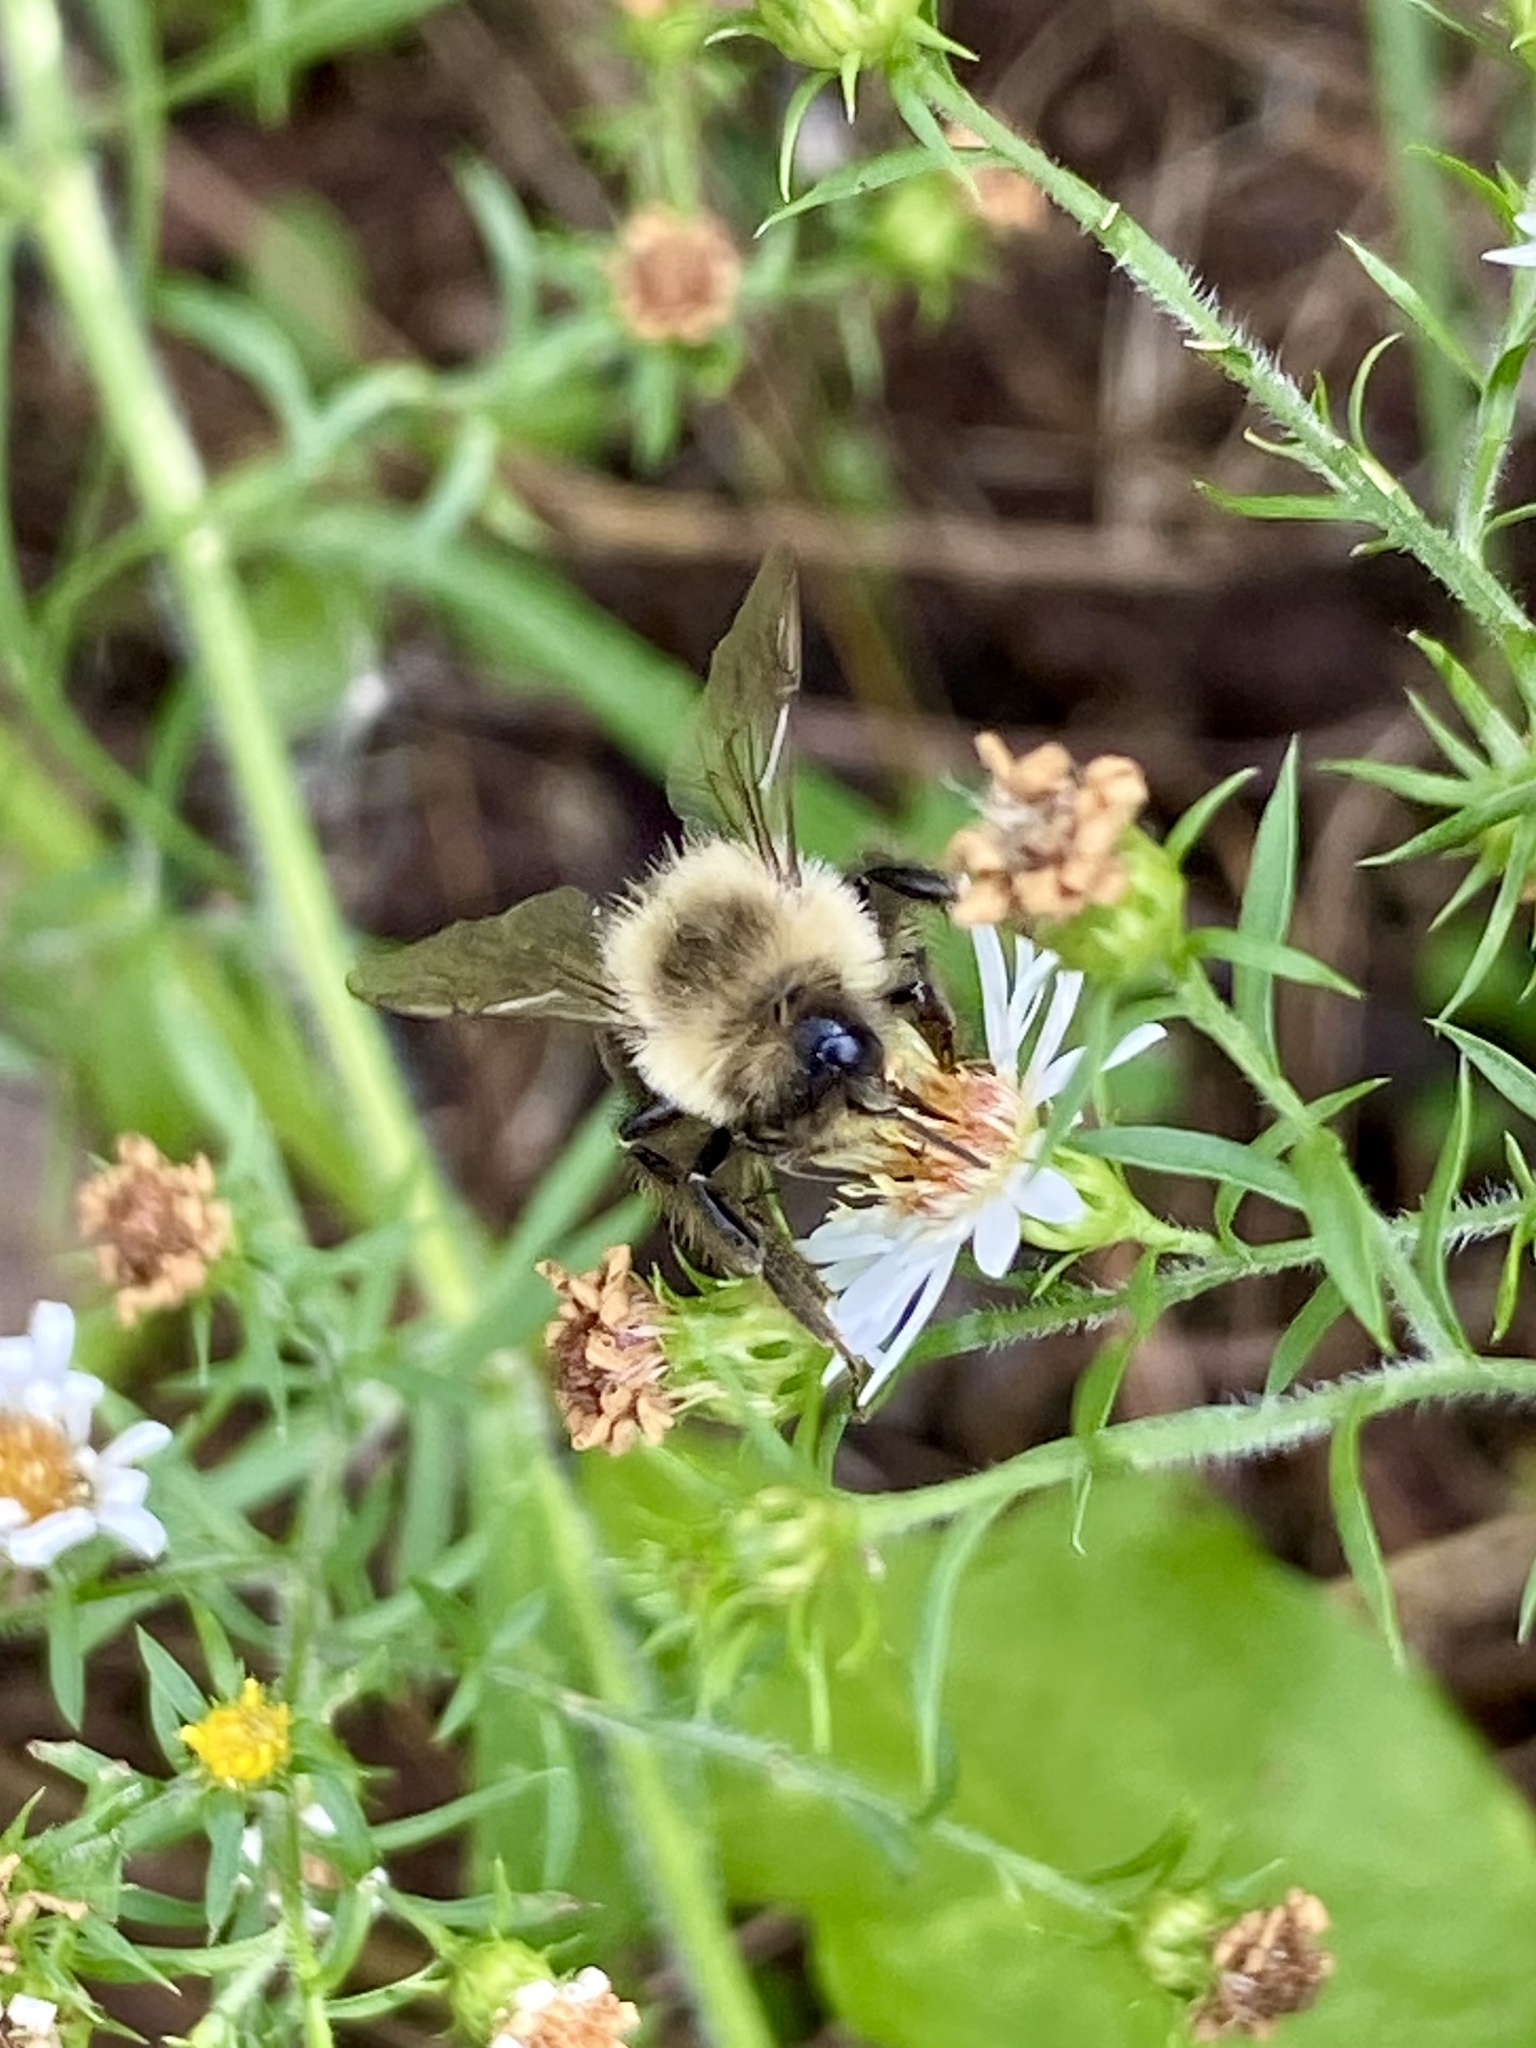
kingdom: Animalia
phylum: Arthropoda
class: Insecta
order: Hymenoptera
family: Apidae
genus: Bombus
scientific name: Bombus impatiens
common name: Common eastern bumble bee
